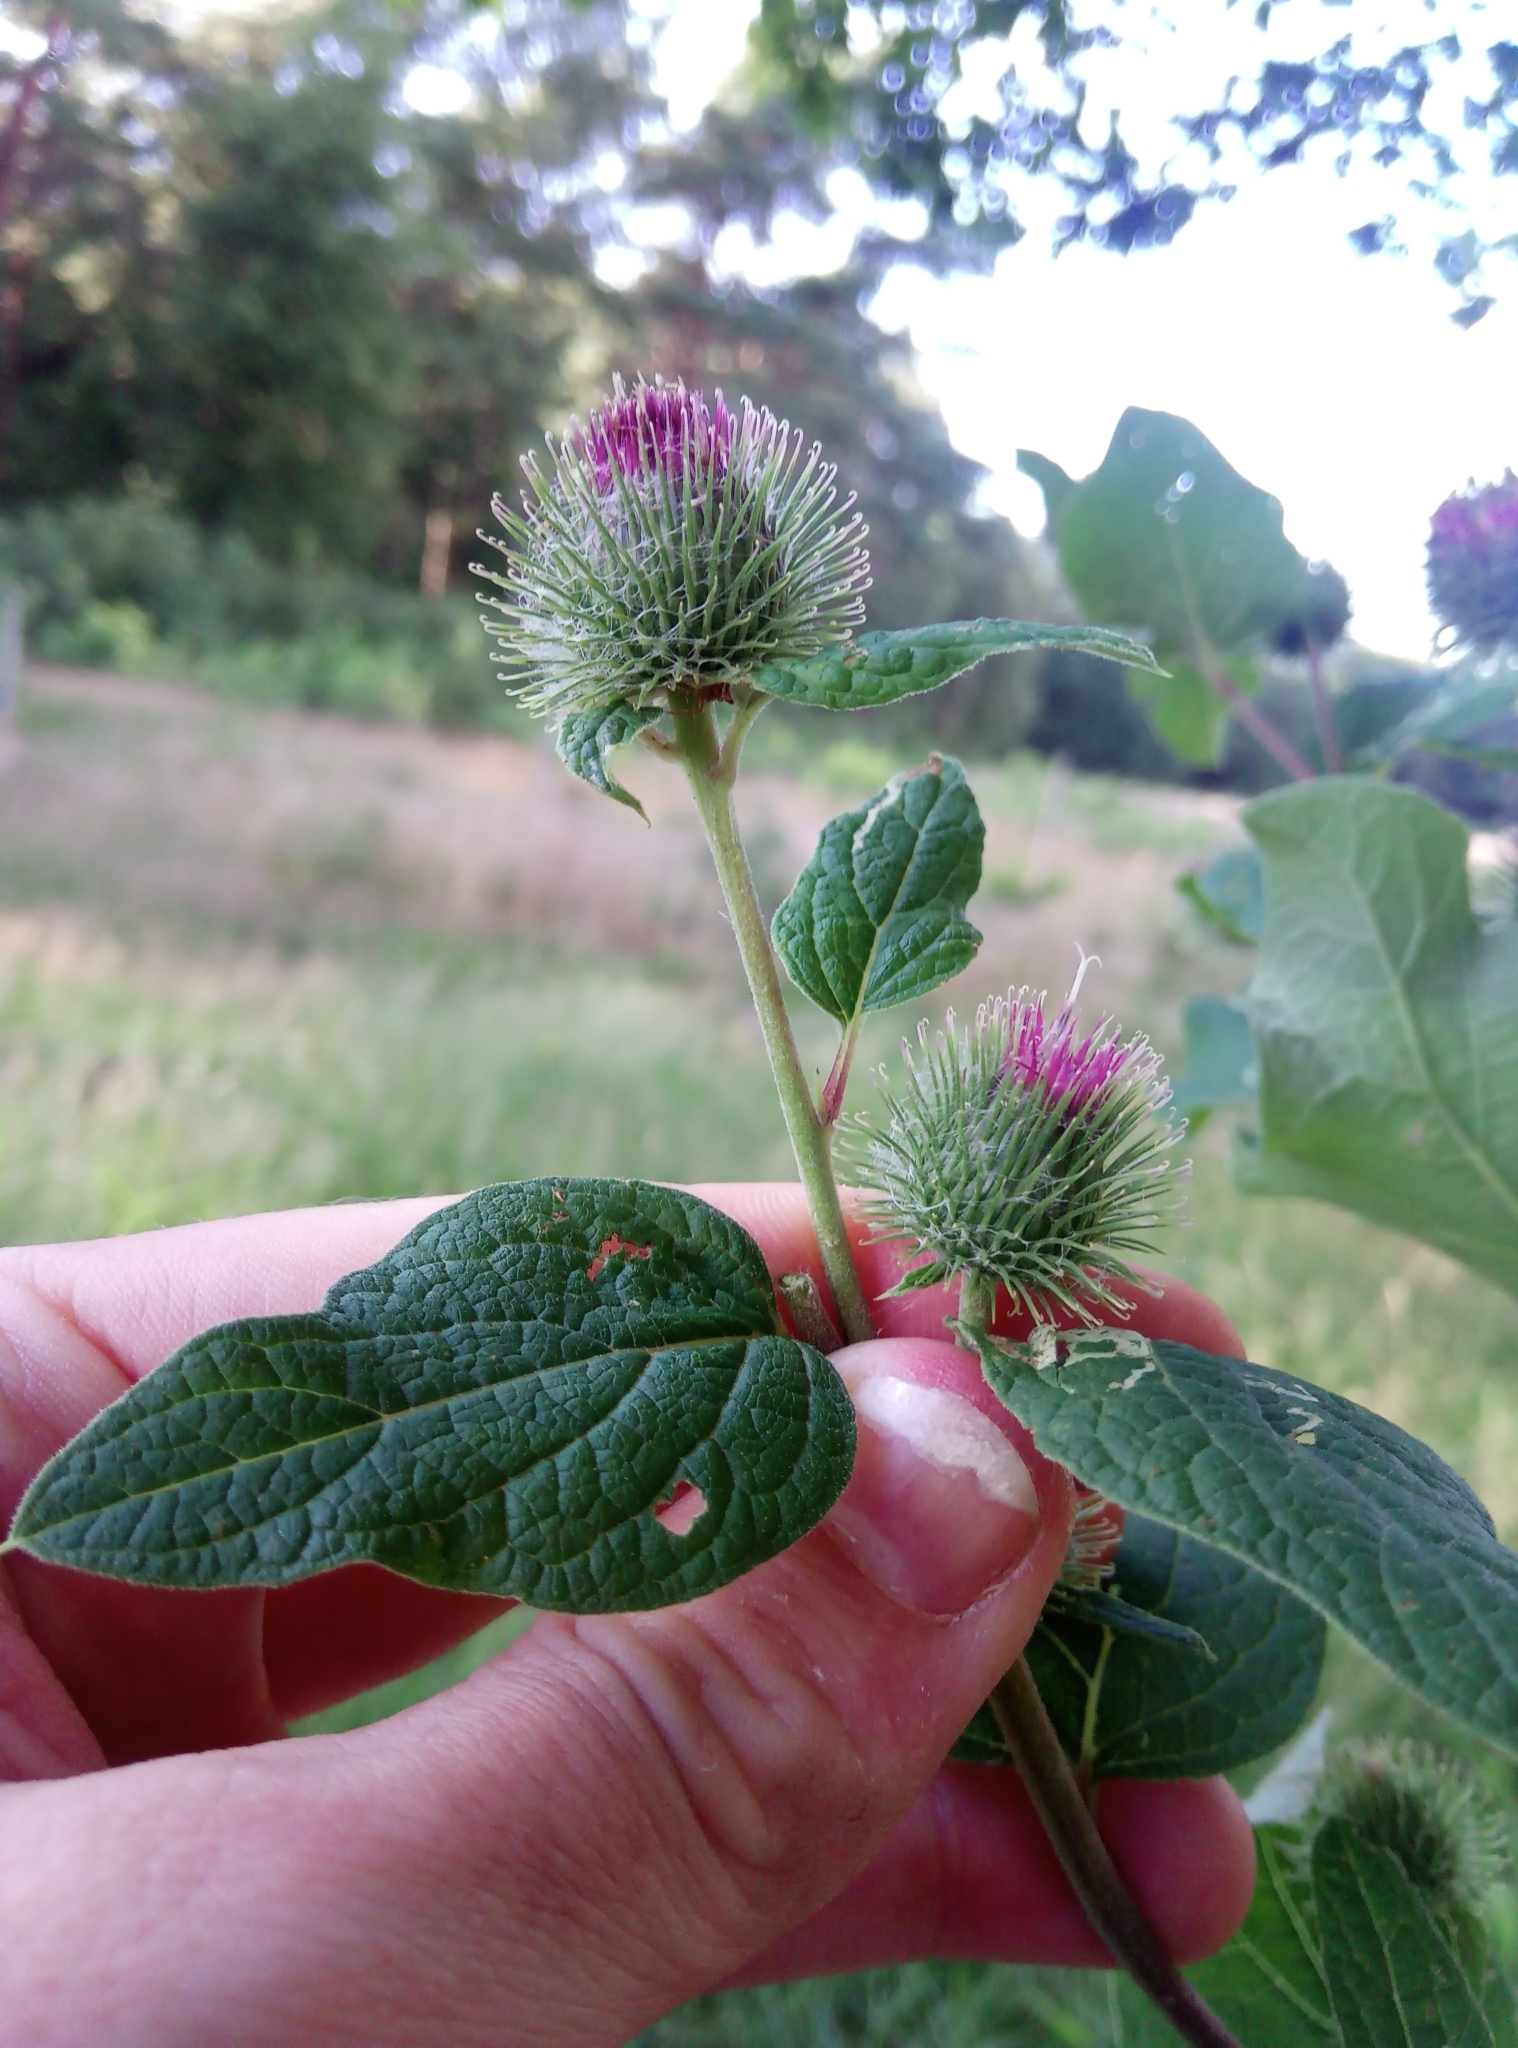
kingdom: Plantae
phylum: Tracheophyta
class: Magnoliopsida
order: Asterales
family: Asteraceae
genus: Arctium
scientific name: Arctium minus
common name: Lesser burdock
